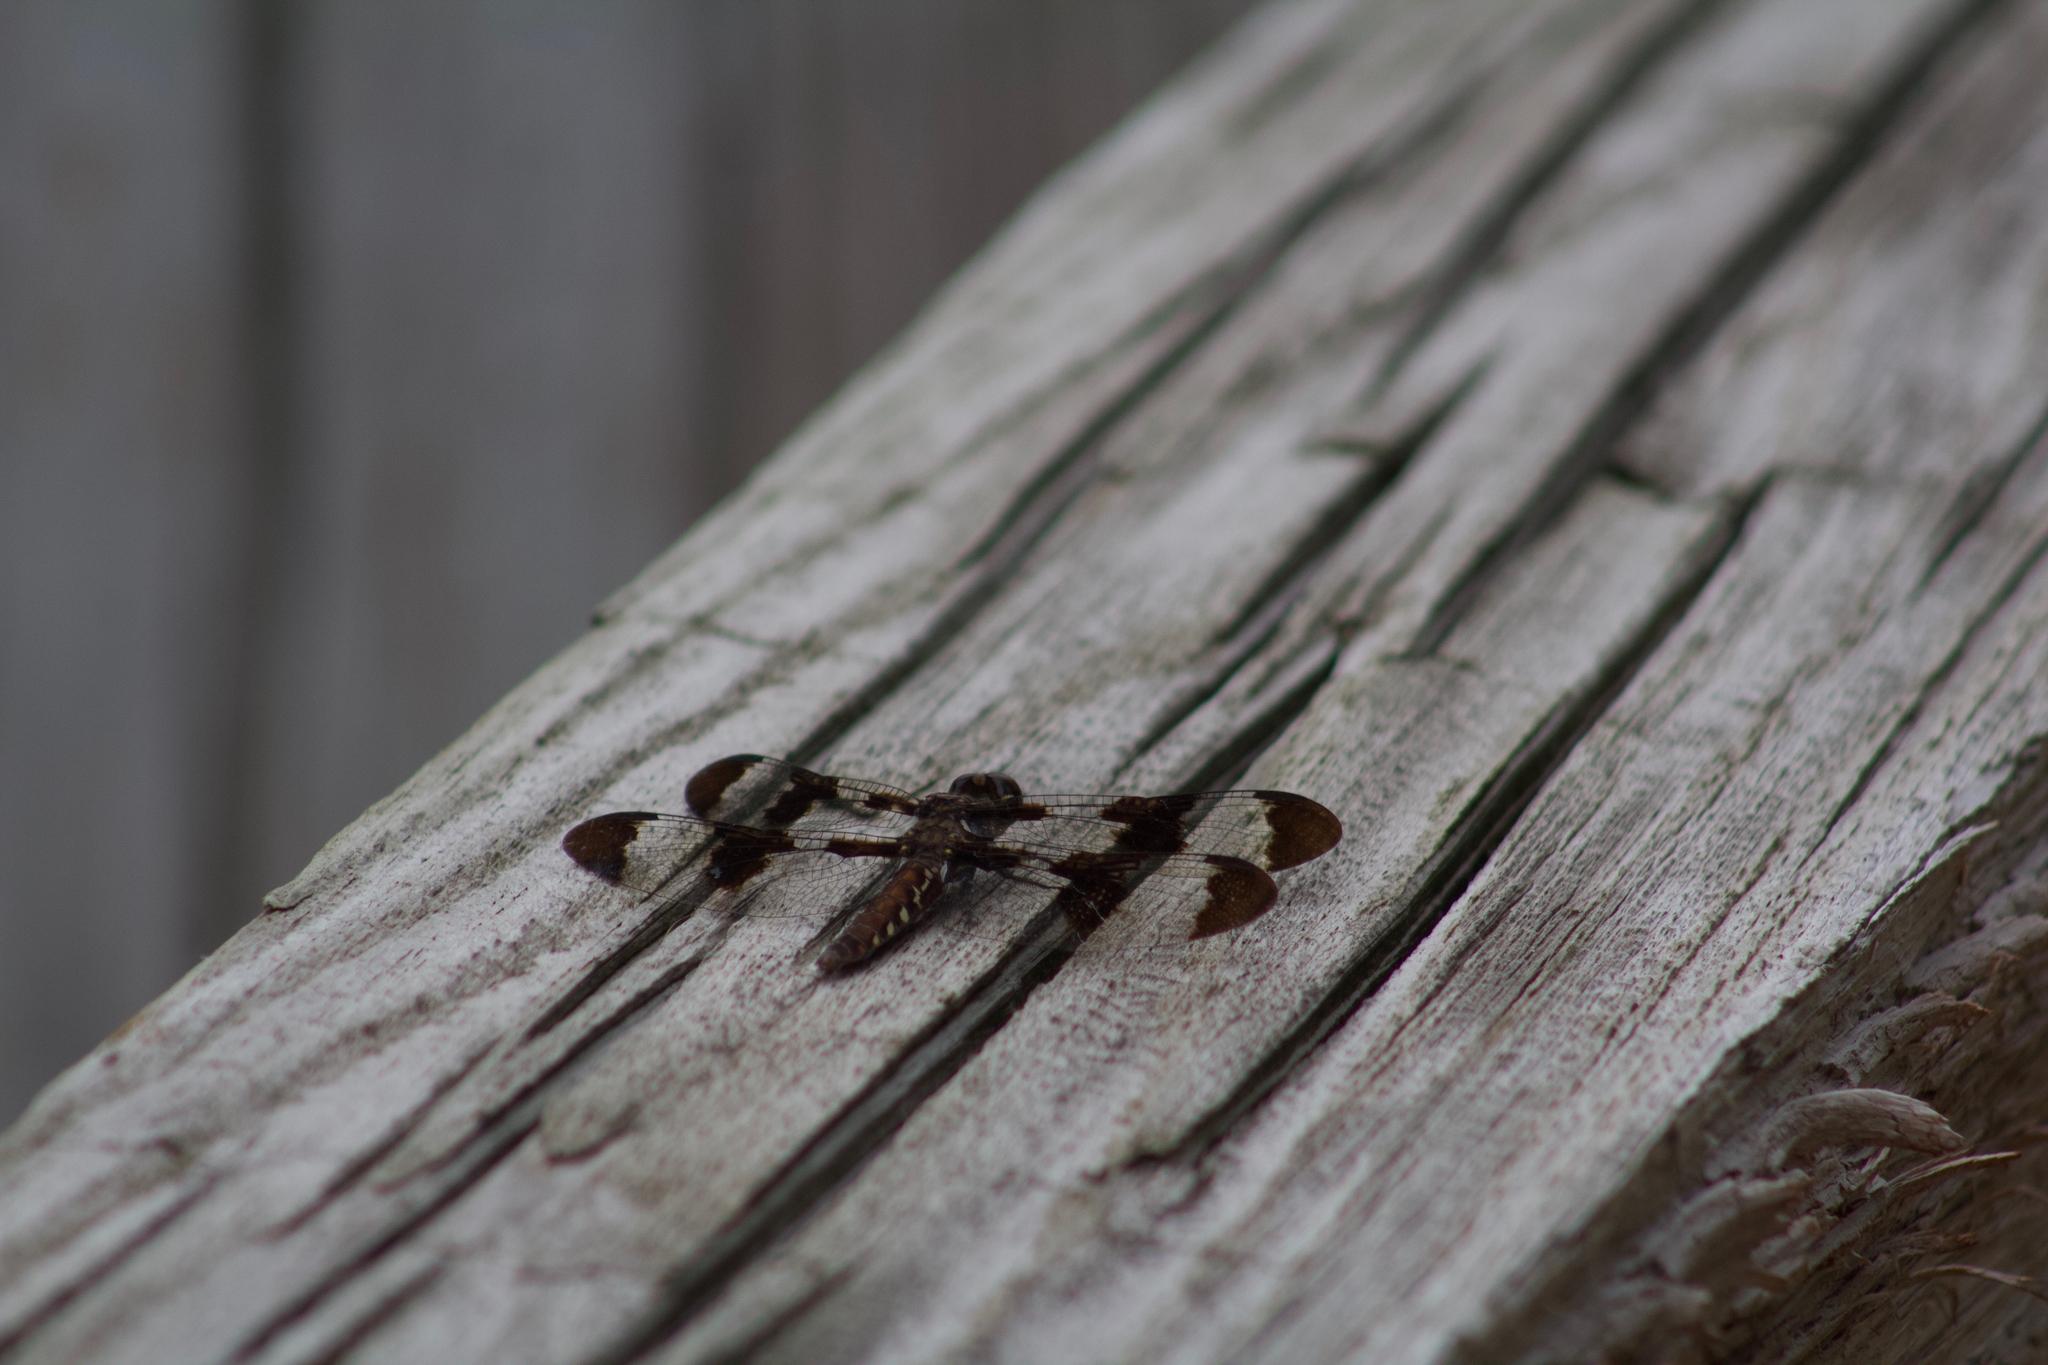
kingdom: Animalia
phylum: Arthropoda
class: Insecta
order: Odonata
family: Libellulidae
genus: Plathemis
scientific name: Plathemis lydia
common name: Common whitetail
